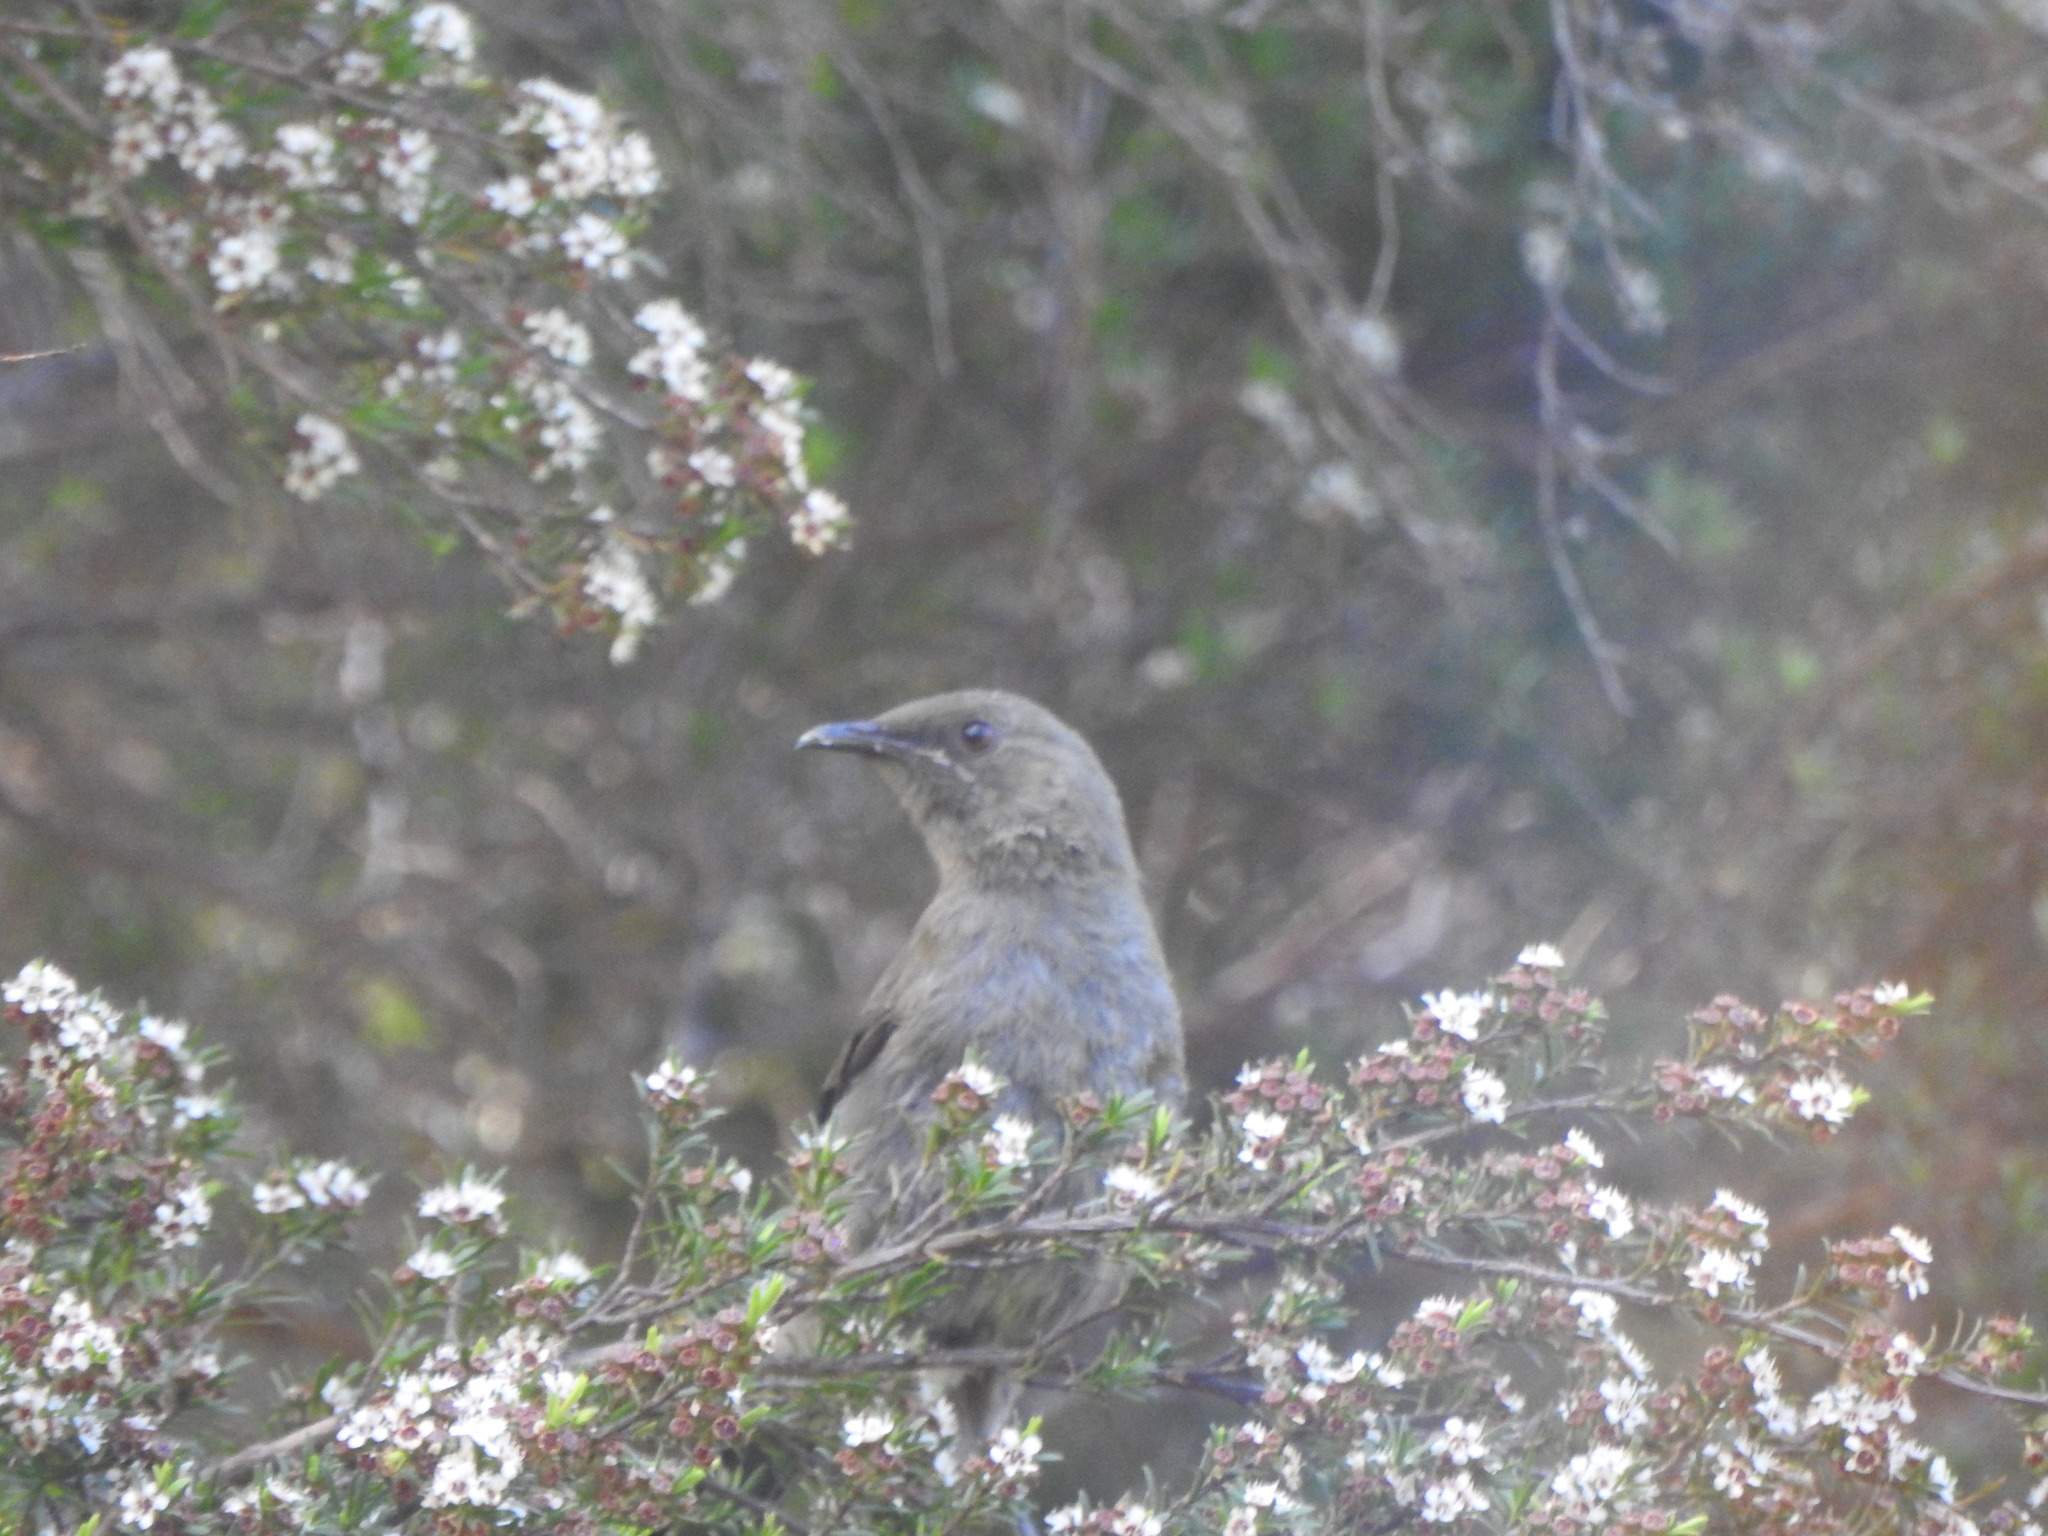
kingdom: Animalia
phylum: Chordata
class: Aves
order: Passeriformes
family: Meliphagidae
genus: Anthornis
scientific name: Anthornis melanura
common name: New zealand bellbird
